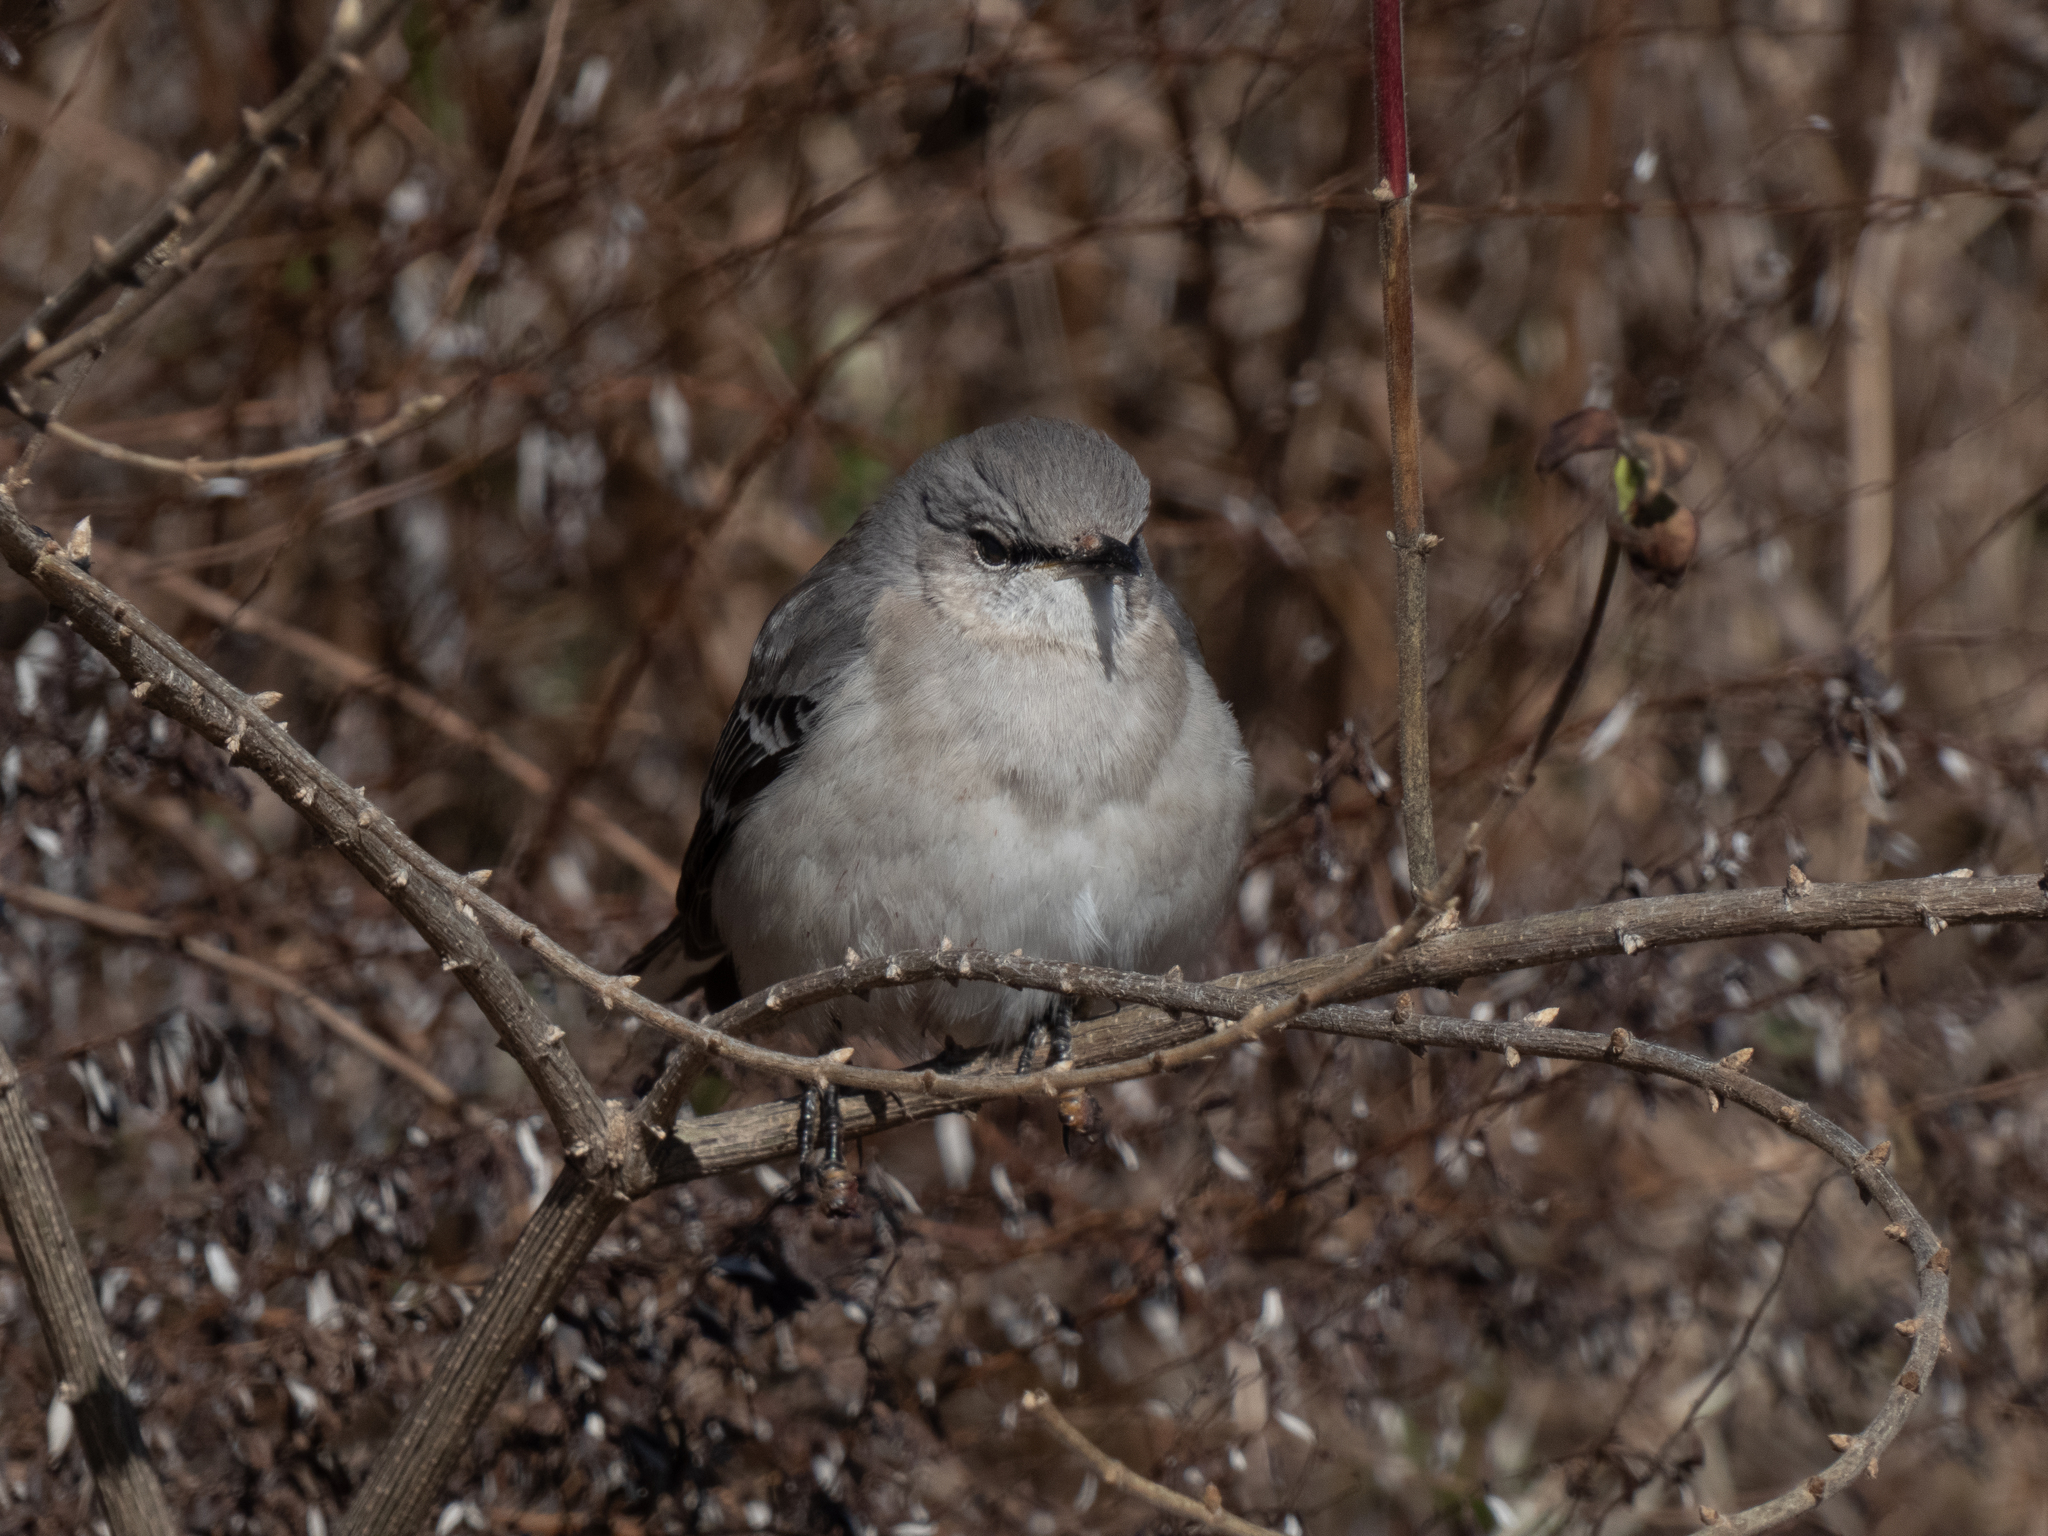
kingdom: Animalia
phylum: Chordata
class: Aves
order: Passeriformes
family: Mimidae
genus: Mimus
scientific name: Mimus polyglottos
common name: Northern mockingbird
